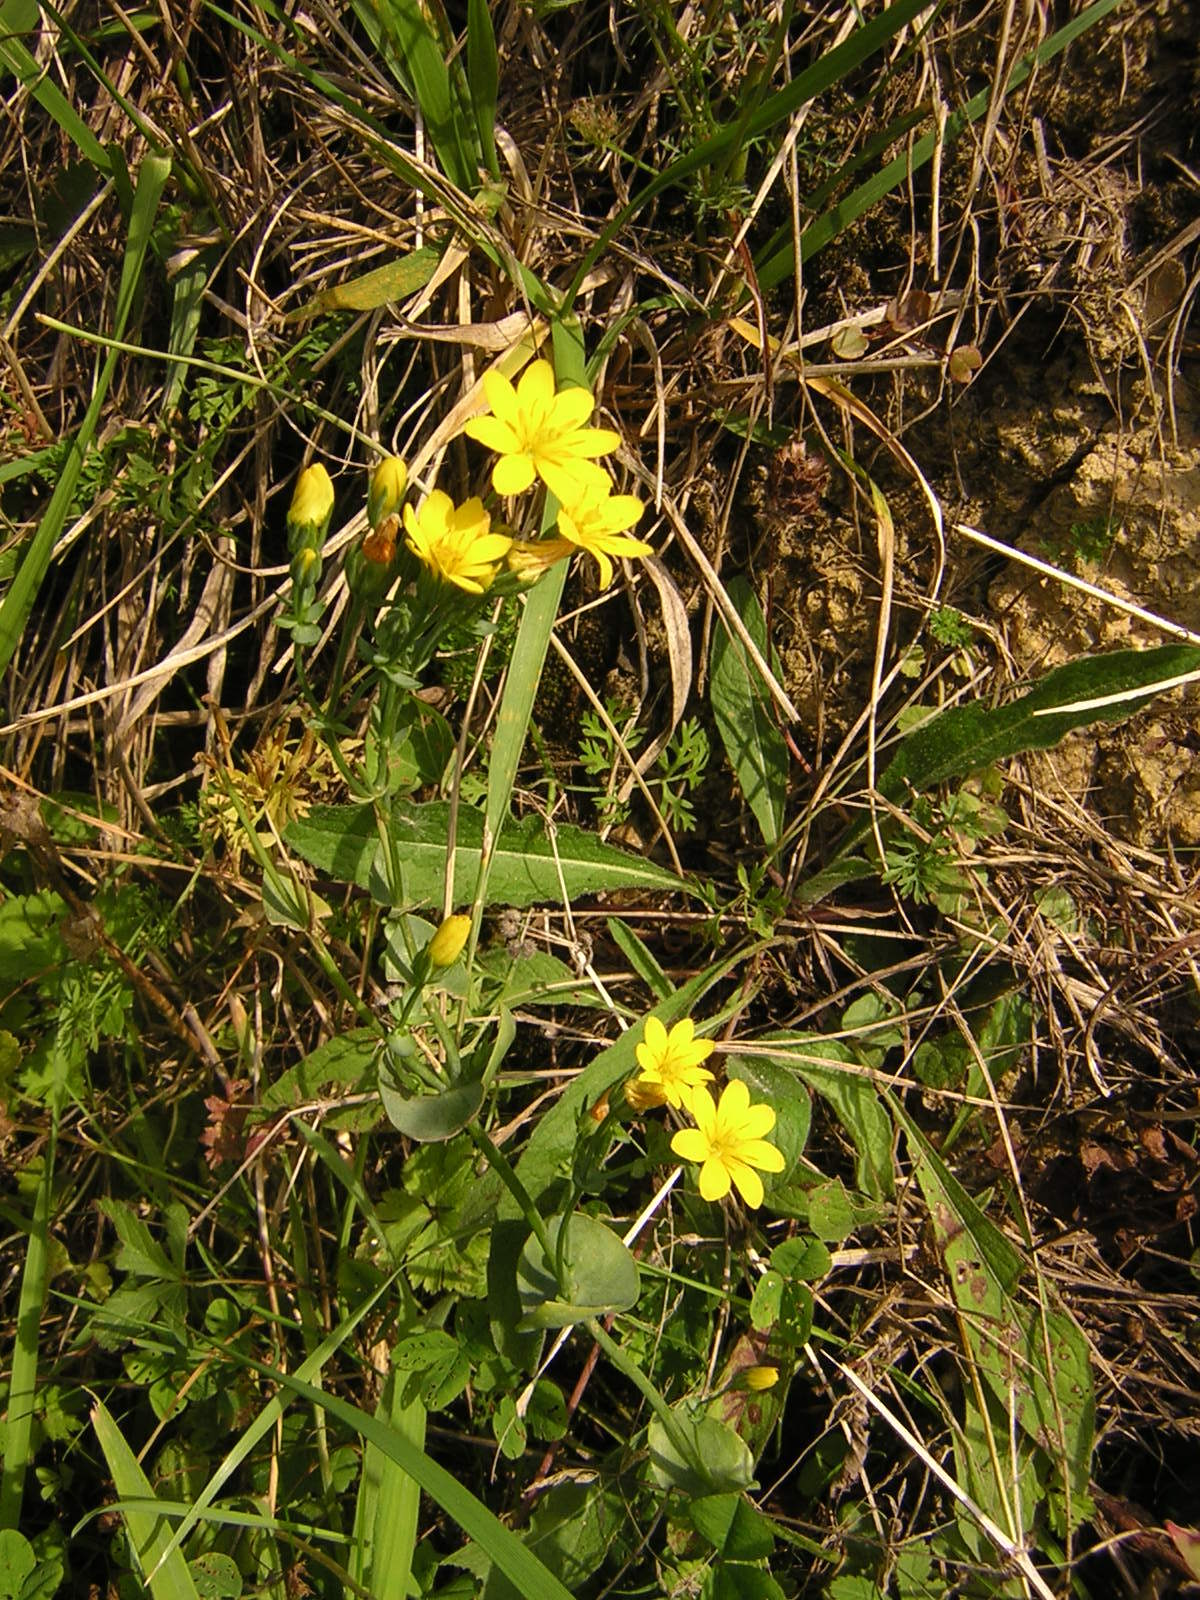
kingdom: Plantae
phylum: Tracheophyta
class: Magnoliopsida
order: Gentianales
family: Gentianaceae
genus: Blackstonia
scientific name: Blackstonia perfoliata
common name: Yellow-wort
